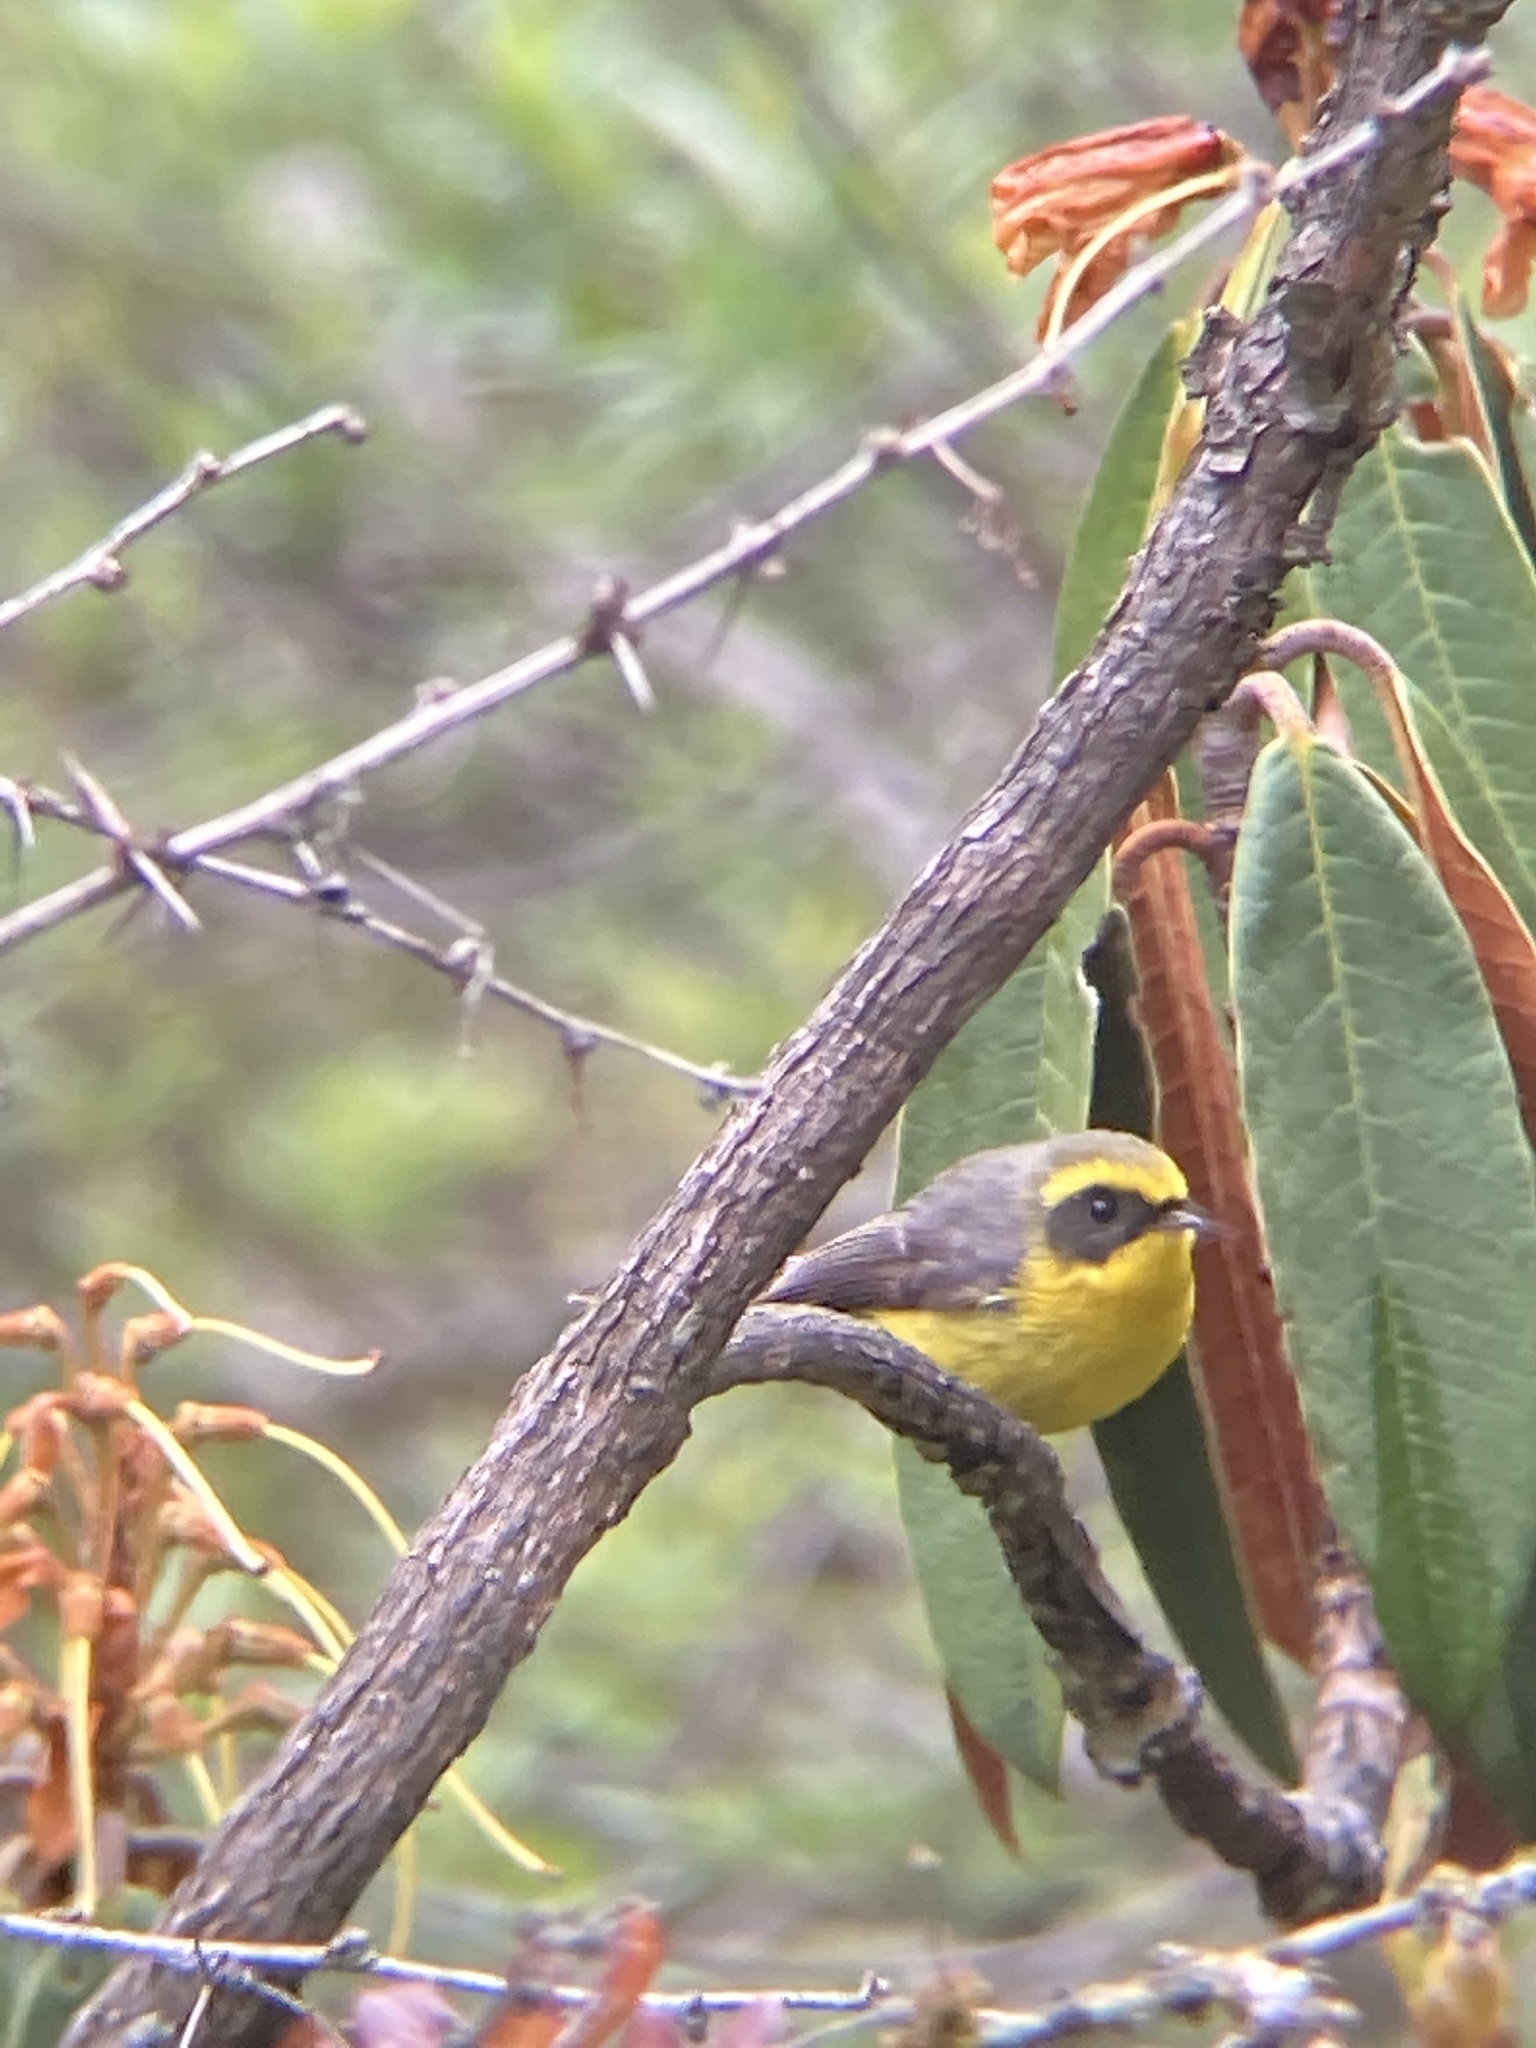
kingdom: Animalia
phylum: Chordata
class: Aves
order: Passeriformes
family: Stenostiridae
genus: Chelidorhynx
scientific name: Chelidorhynx hypoxantha
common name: Yellow-bellied fantail
